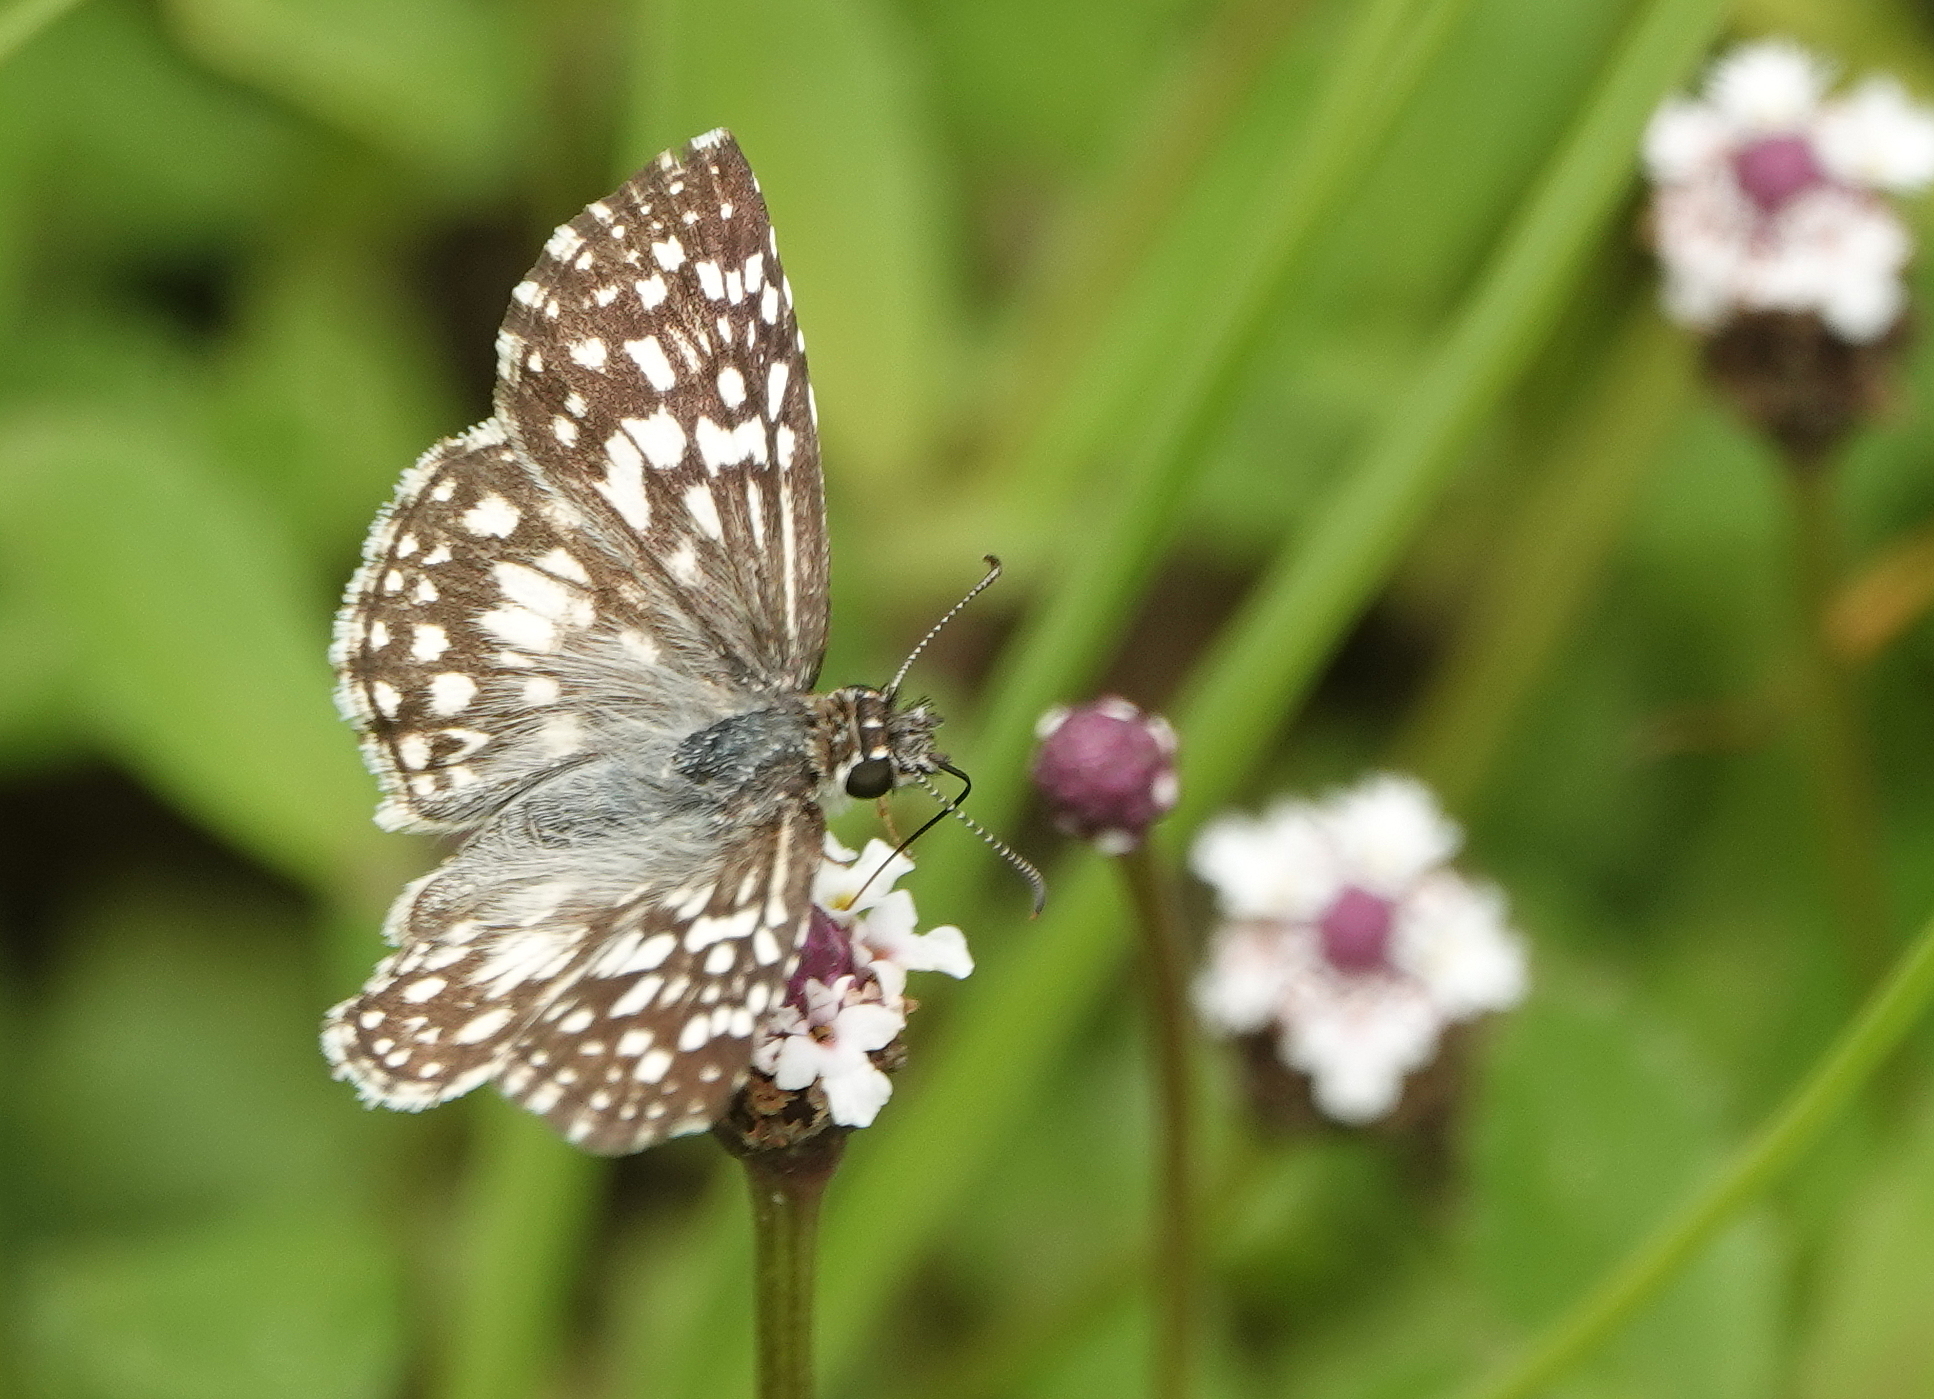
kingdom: Animalia
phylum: Arthropoda
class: Insecta
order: Lepidoptera
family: Hesperiidae
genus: Pyrgus
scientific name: Pyrgus oileus
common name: Tropical checkered-skipper
